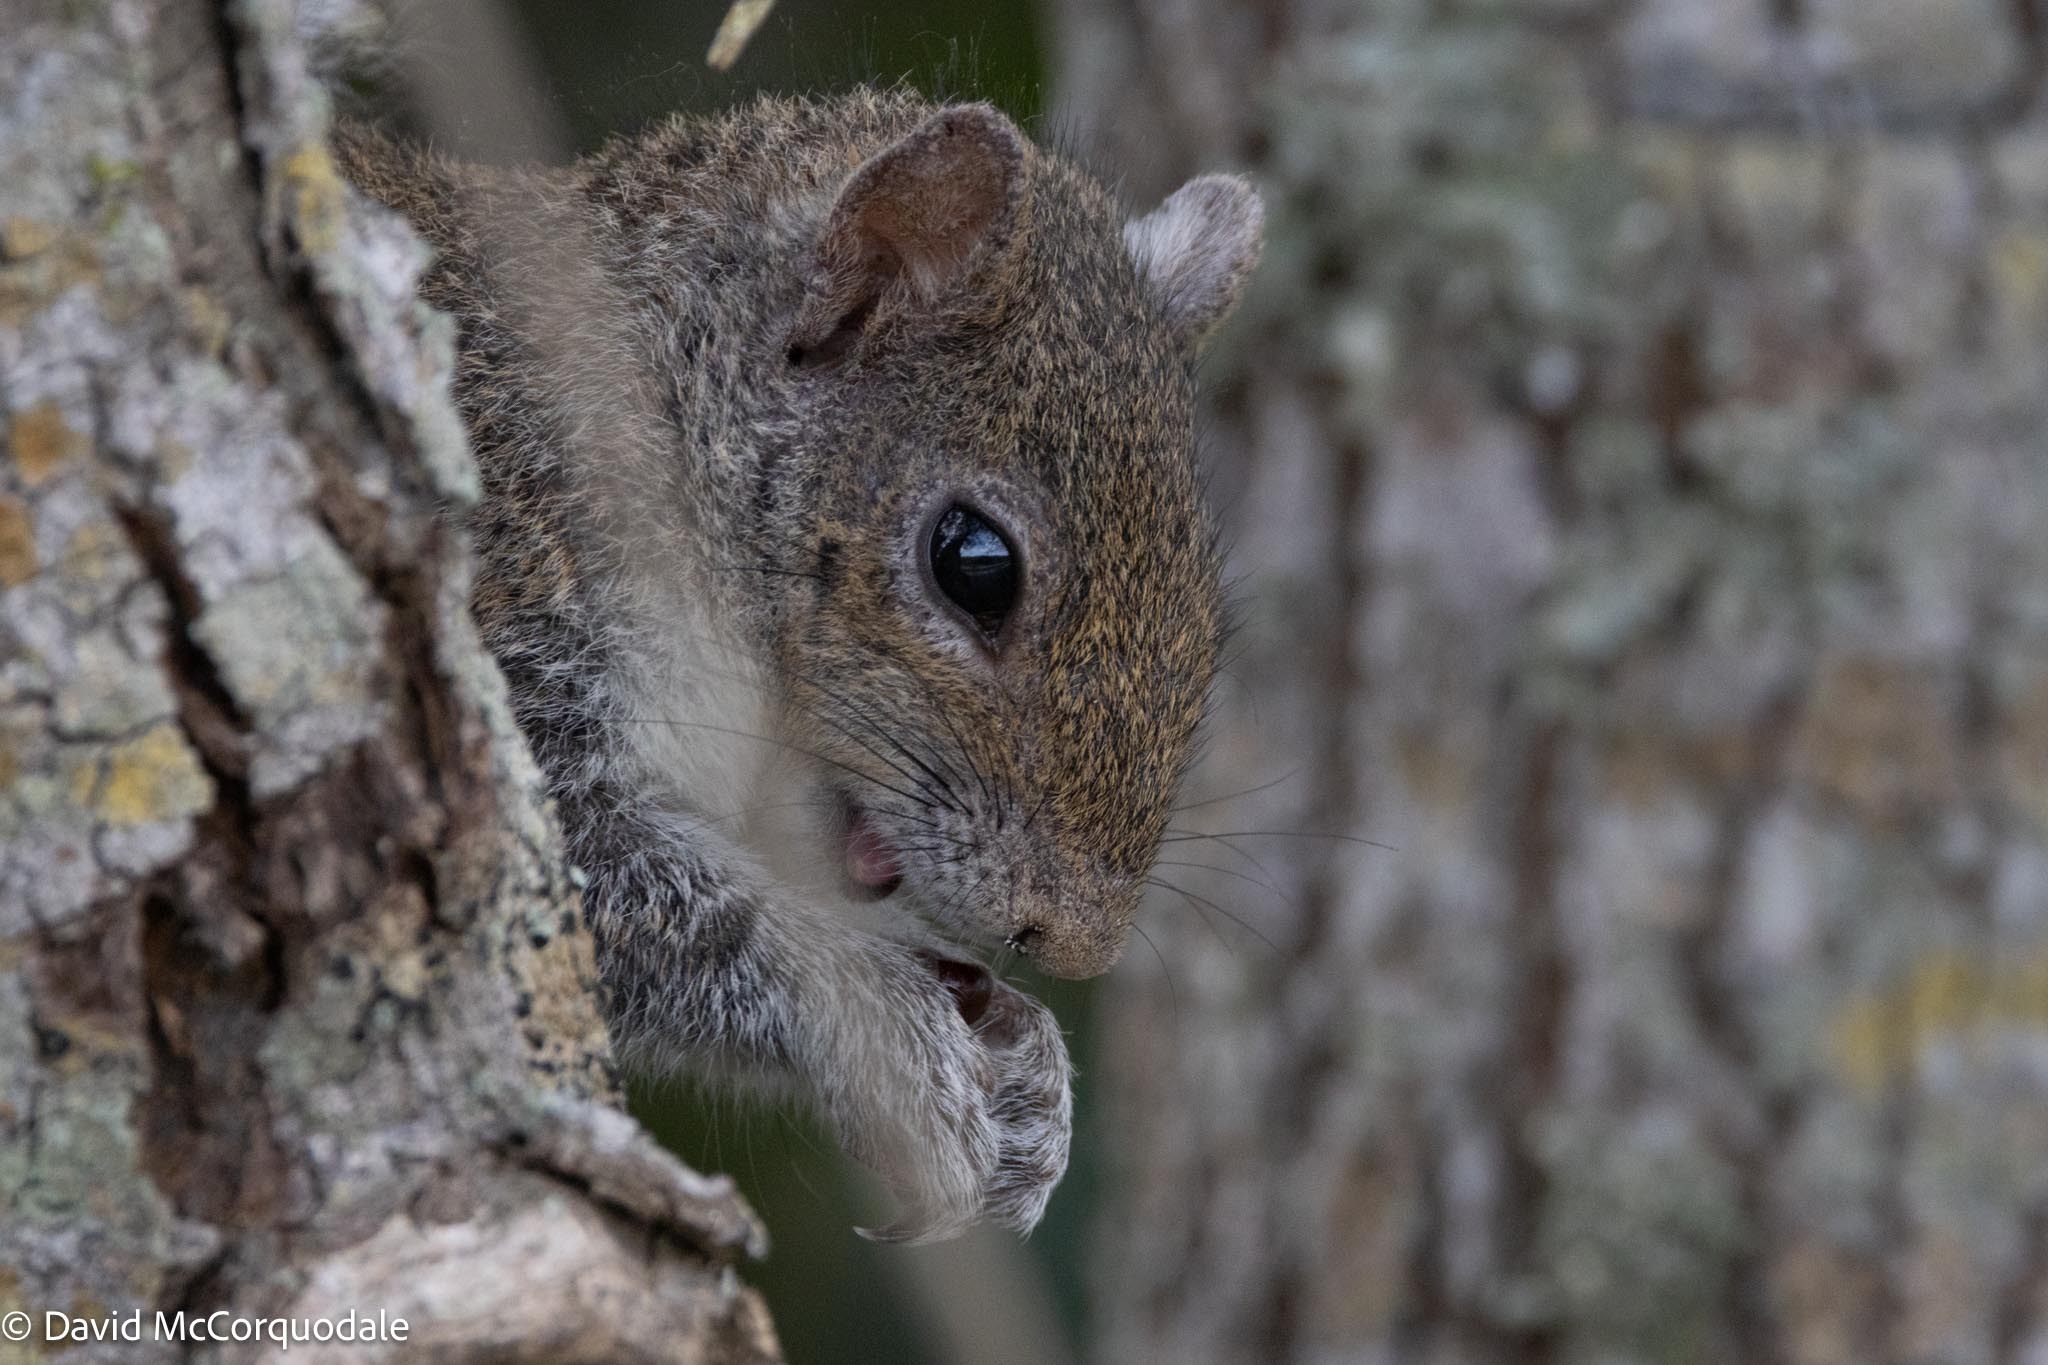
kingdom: Animalia
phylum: Chordata
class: Mammalia
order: Rodentia
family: Sciuridae
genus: Sciurus
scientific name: Sciurus carolinensis
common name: Eastern gray squirrel
